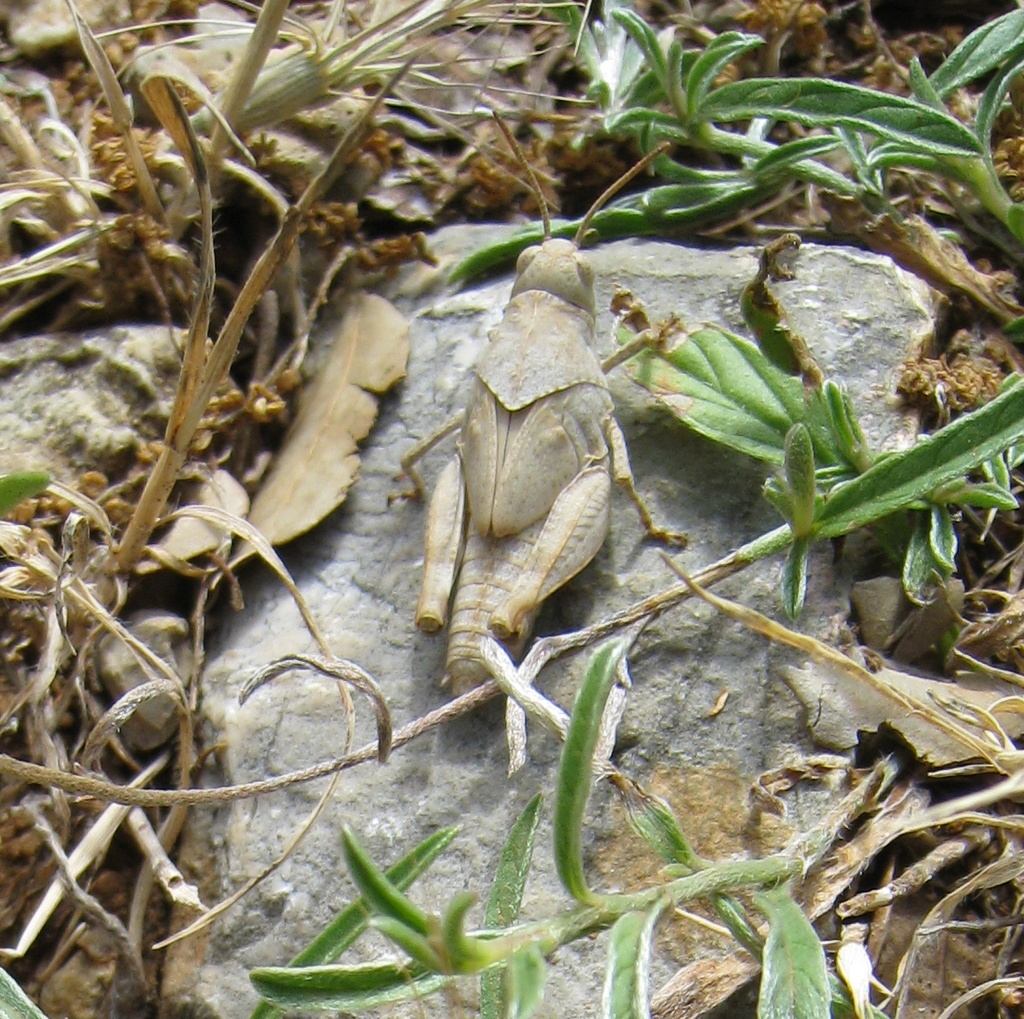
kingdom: Animalia
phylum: Arthropoda
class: Insecta
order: Orthoptera
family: Acrididae
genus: Oedipoda
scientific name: Oedipoda
